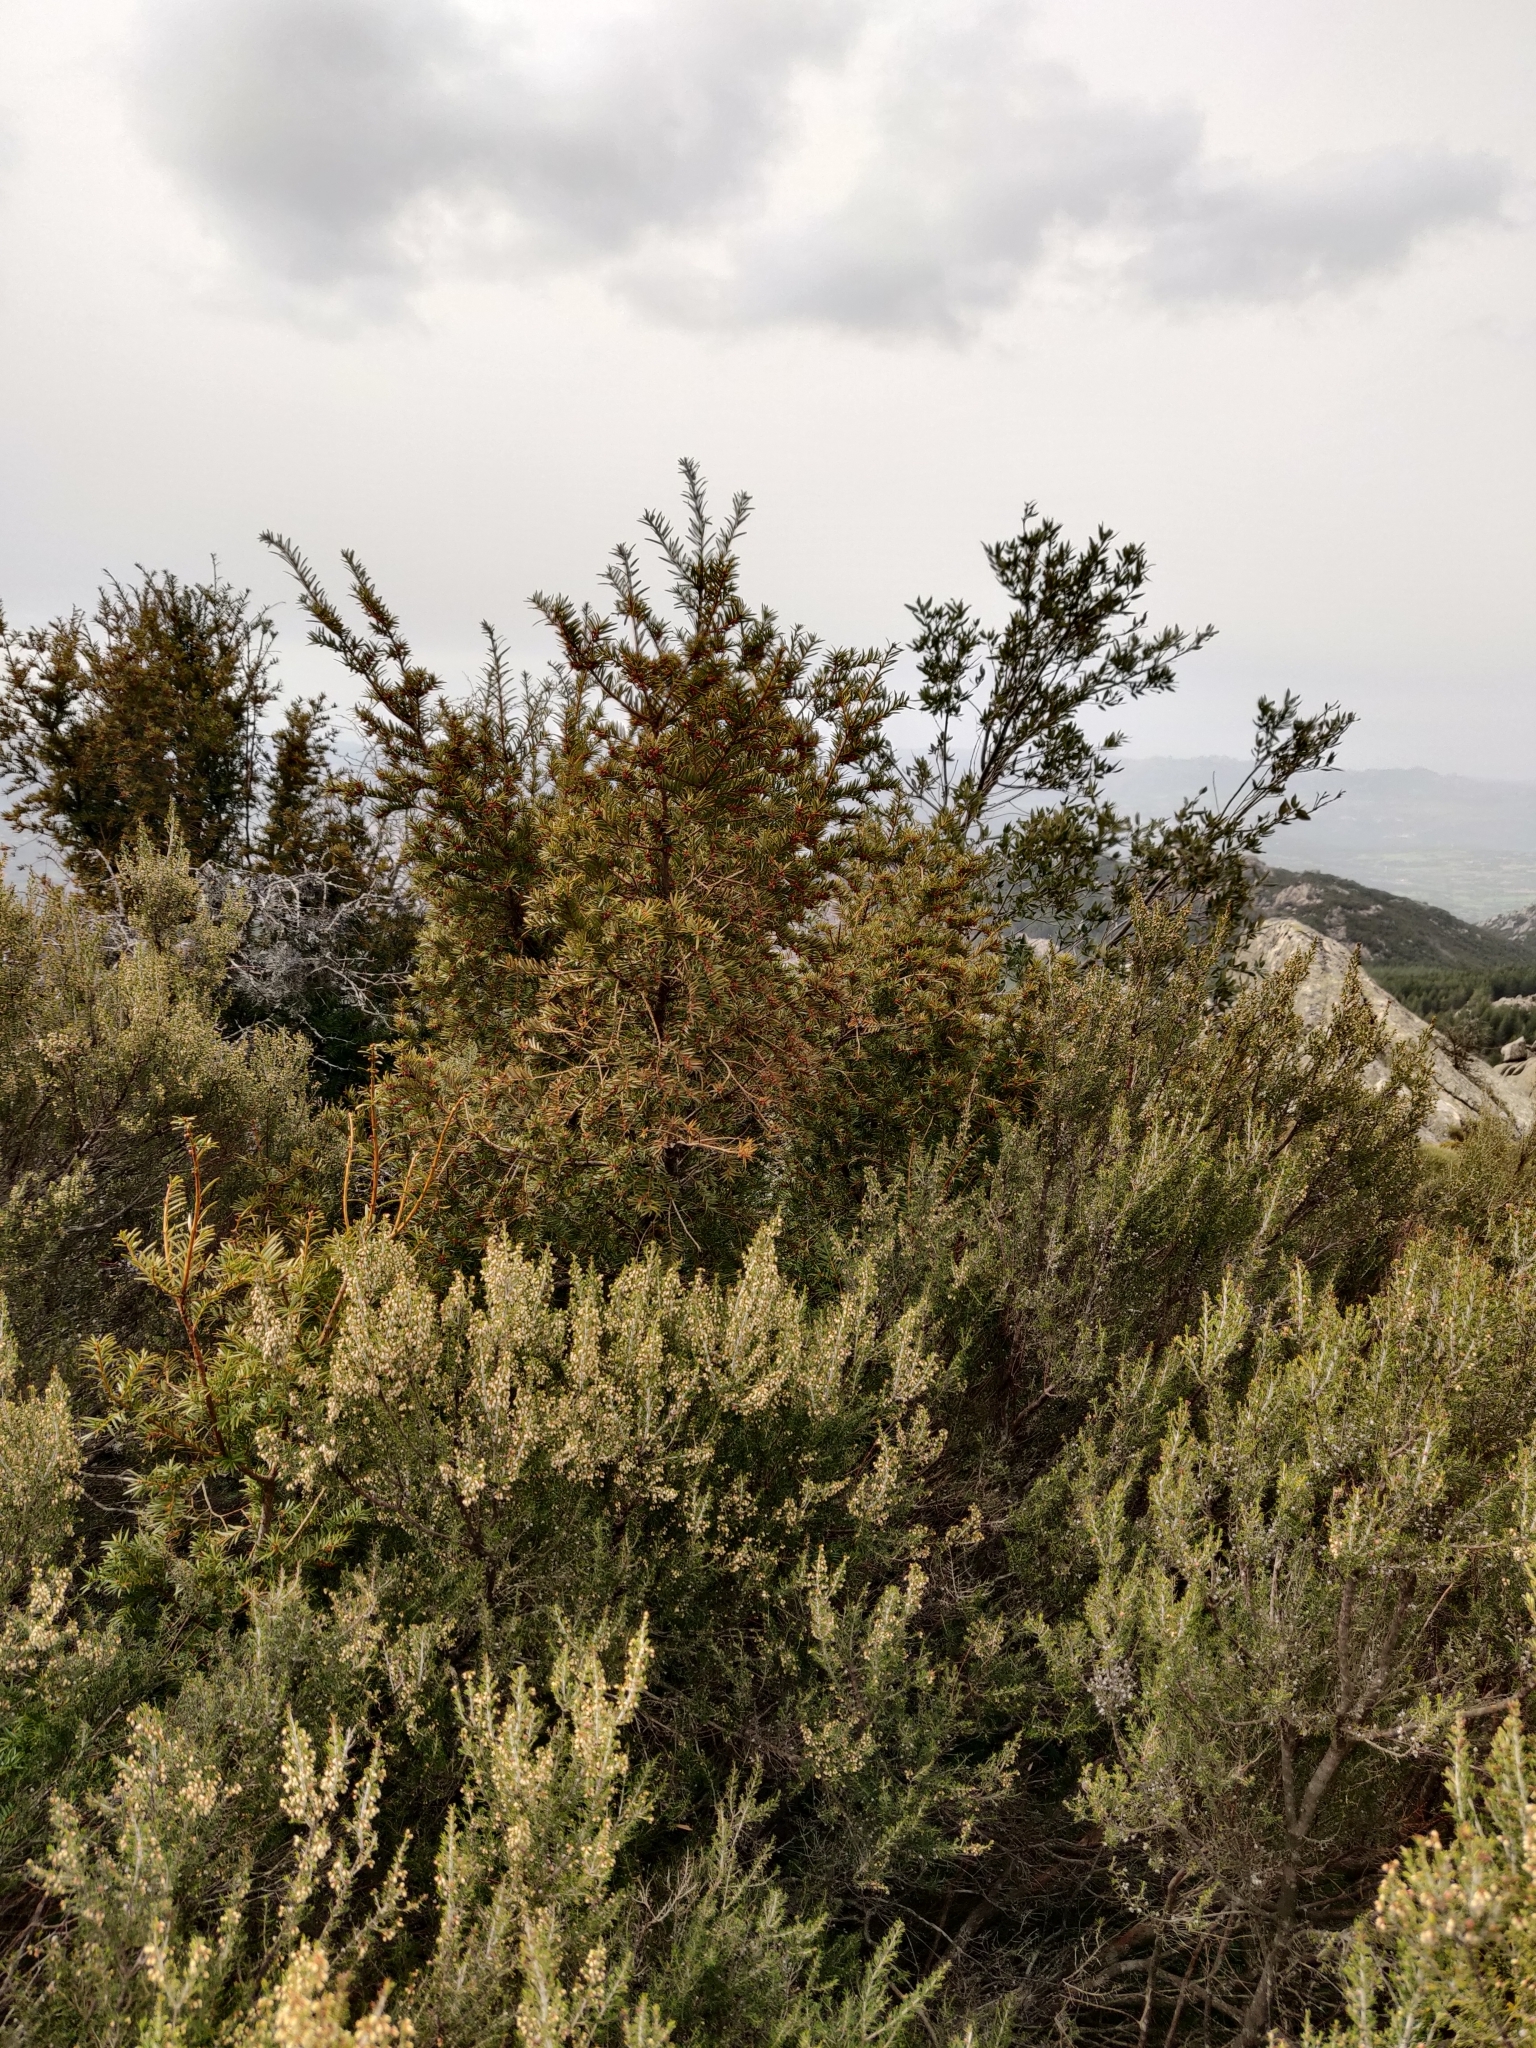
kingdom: Plantae
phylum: Tracheophyta
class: Pinopsida
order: Pinales
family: Taxaceae
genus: Taxus
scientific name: Taxus baccata
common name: Yew
